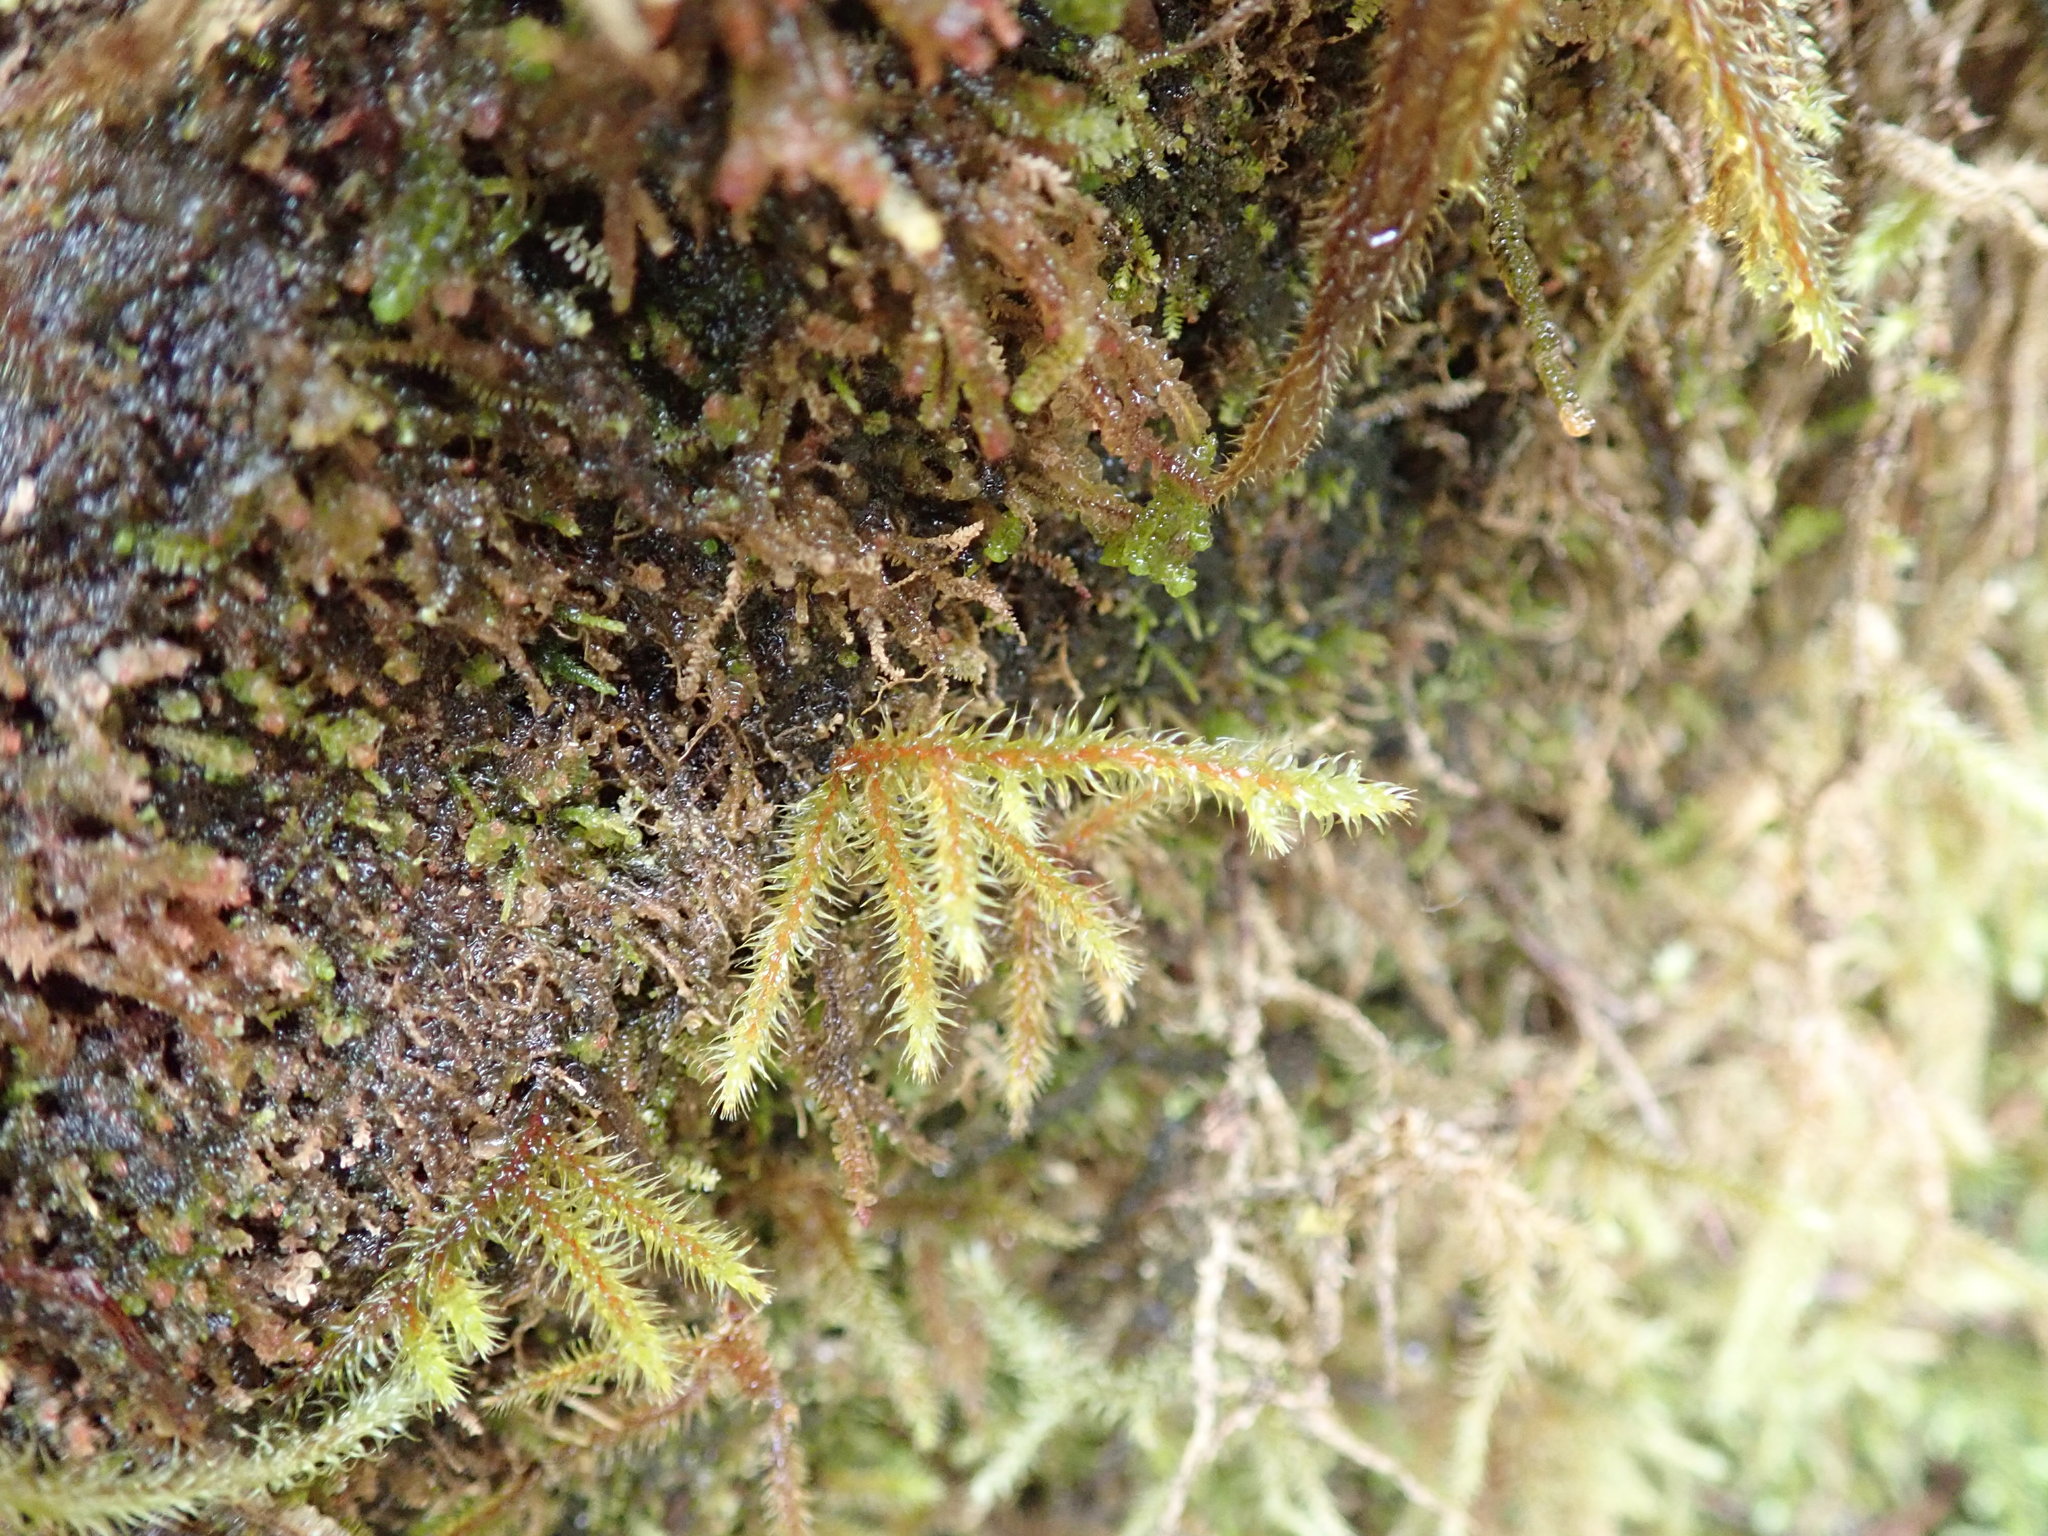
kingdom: Plantae
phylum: Bryophyta
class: Bryopsida
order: Hypnales
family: Hylocomiaceae
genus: Rhytidiadelphus
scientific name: Rhytidiadelphus loreus
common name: Lanky moss
